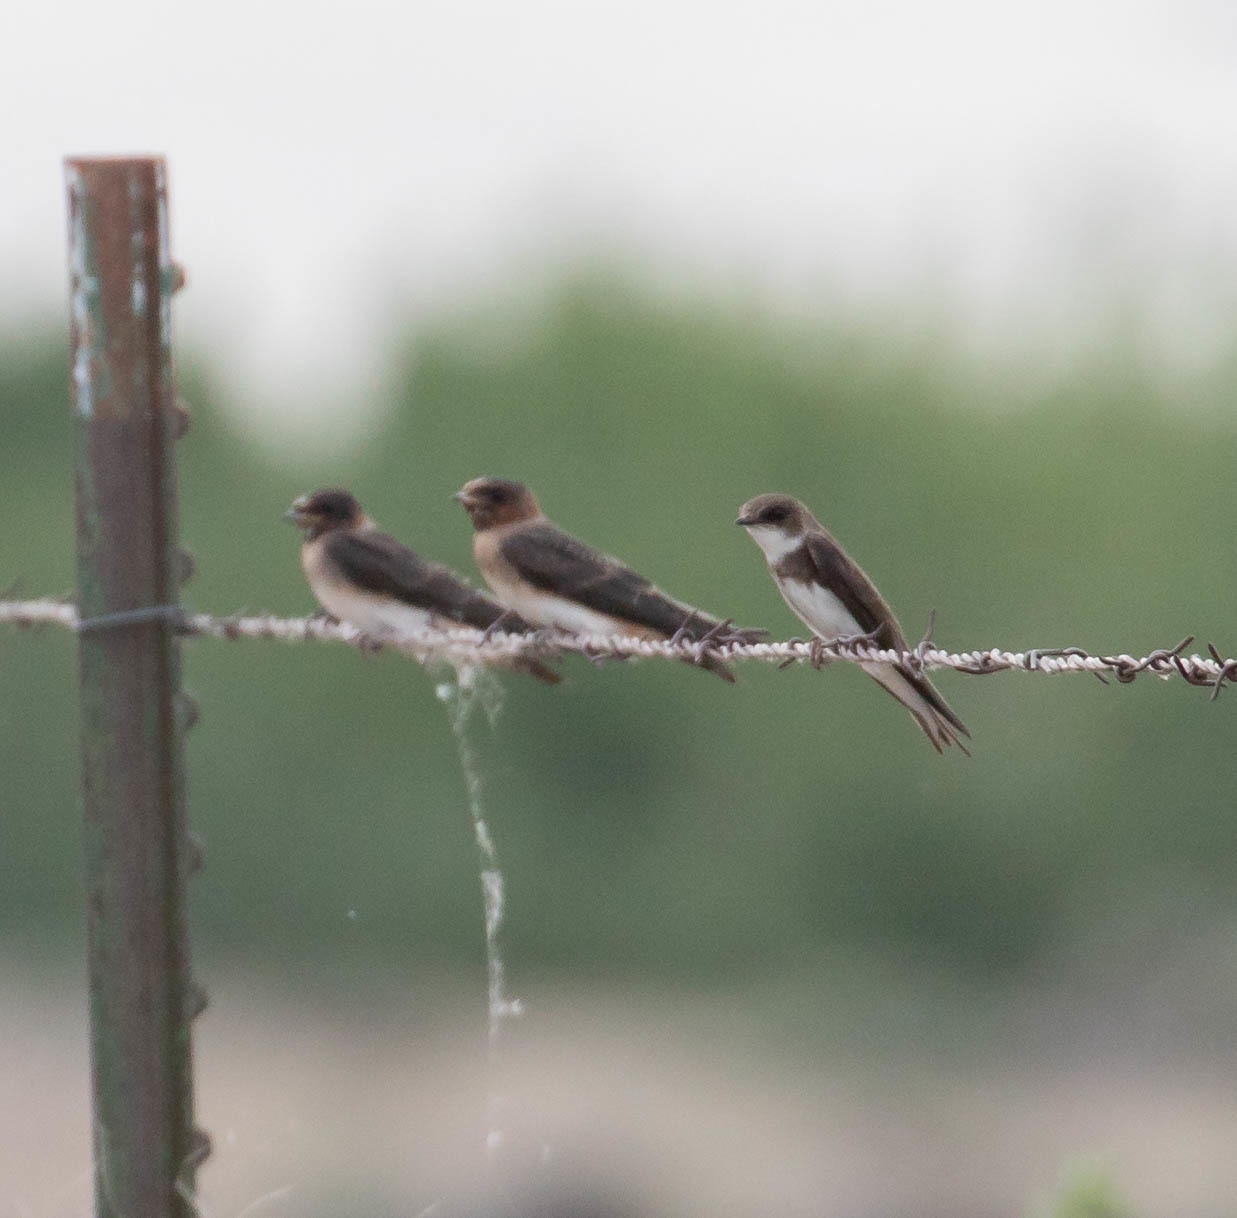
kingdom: Animalia
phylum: Chordata
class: Aves
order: Passeriformes
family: Hirundinidae
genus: Riparia
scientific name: Riparia riparia
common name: Sand martin
